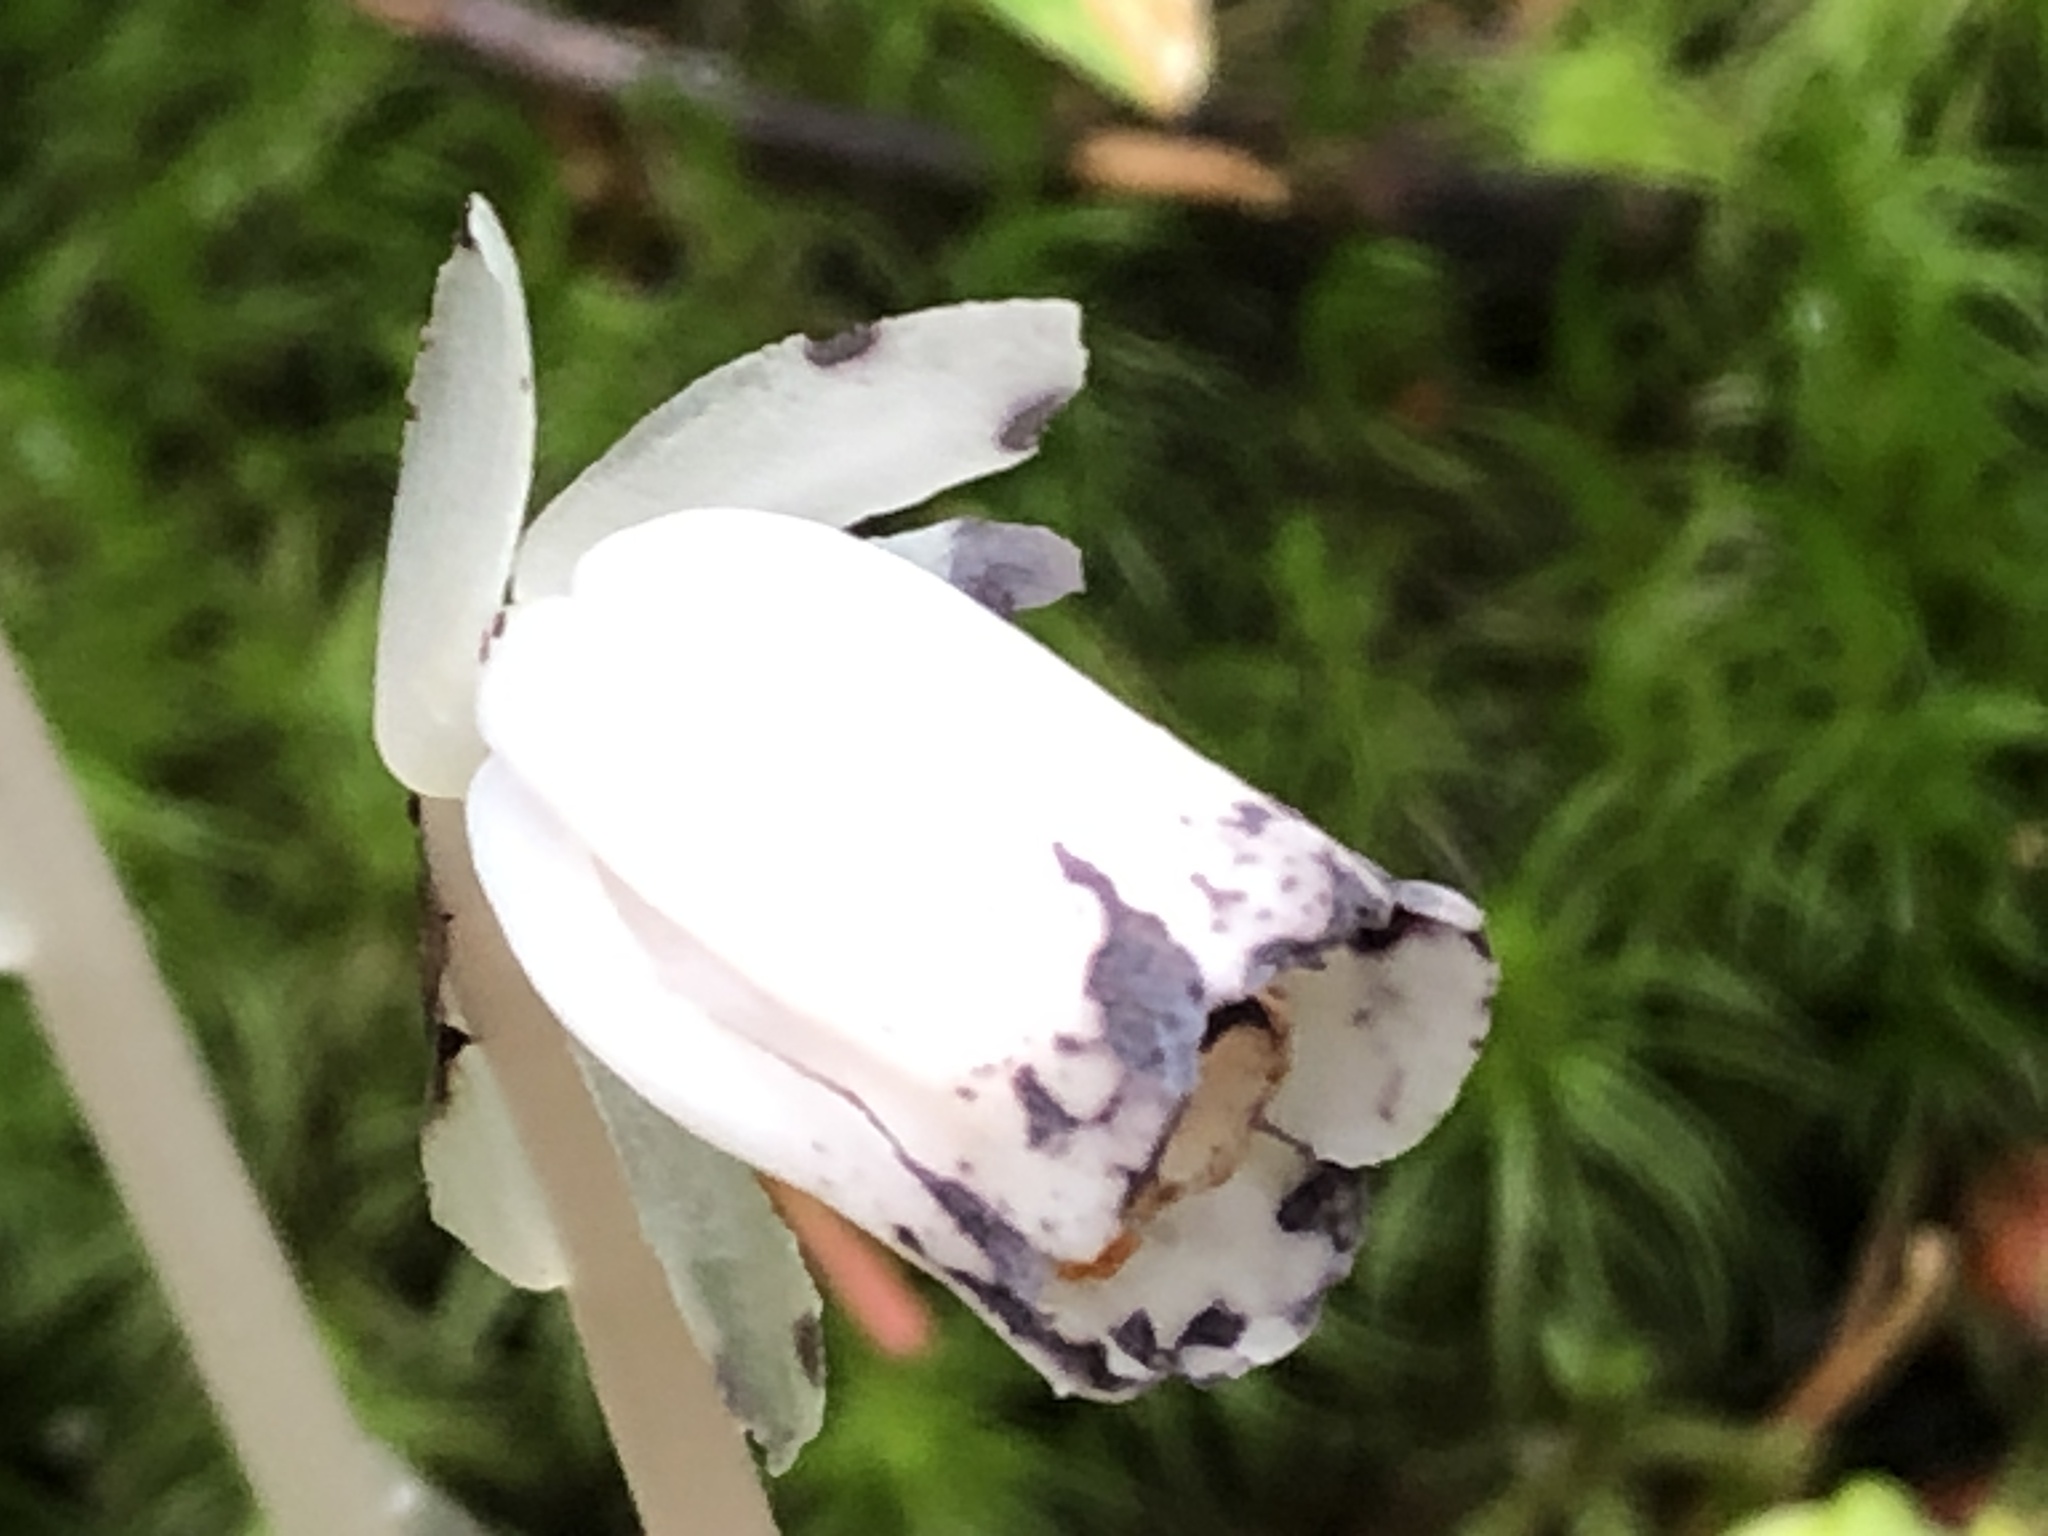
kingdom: Plantae
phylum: Tracheophyta
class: Magnoliopsida
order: Ericales
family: Ericaceae
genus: Monotropa
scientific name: Monotropa uniflora
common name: Convulsion root
